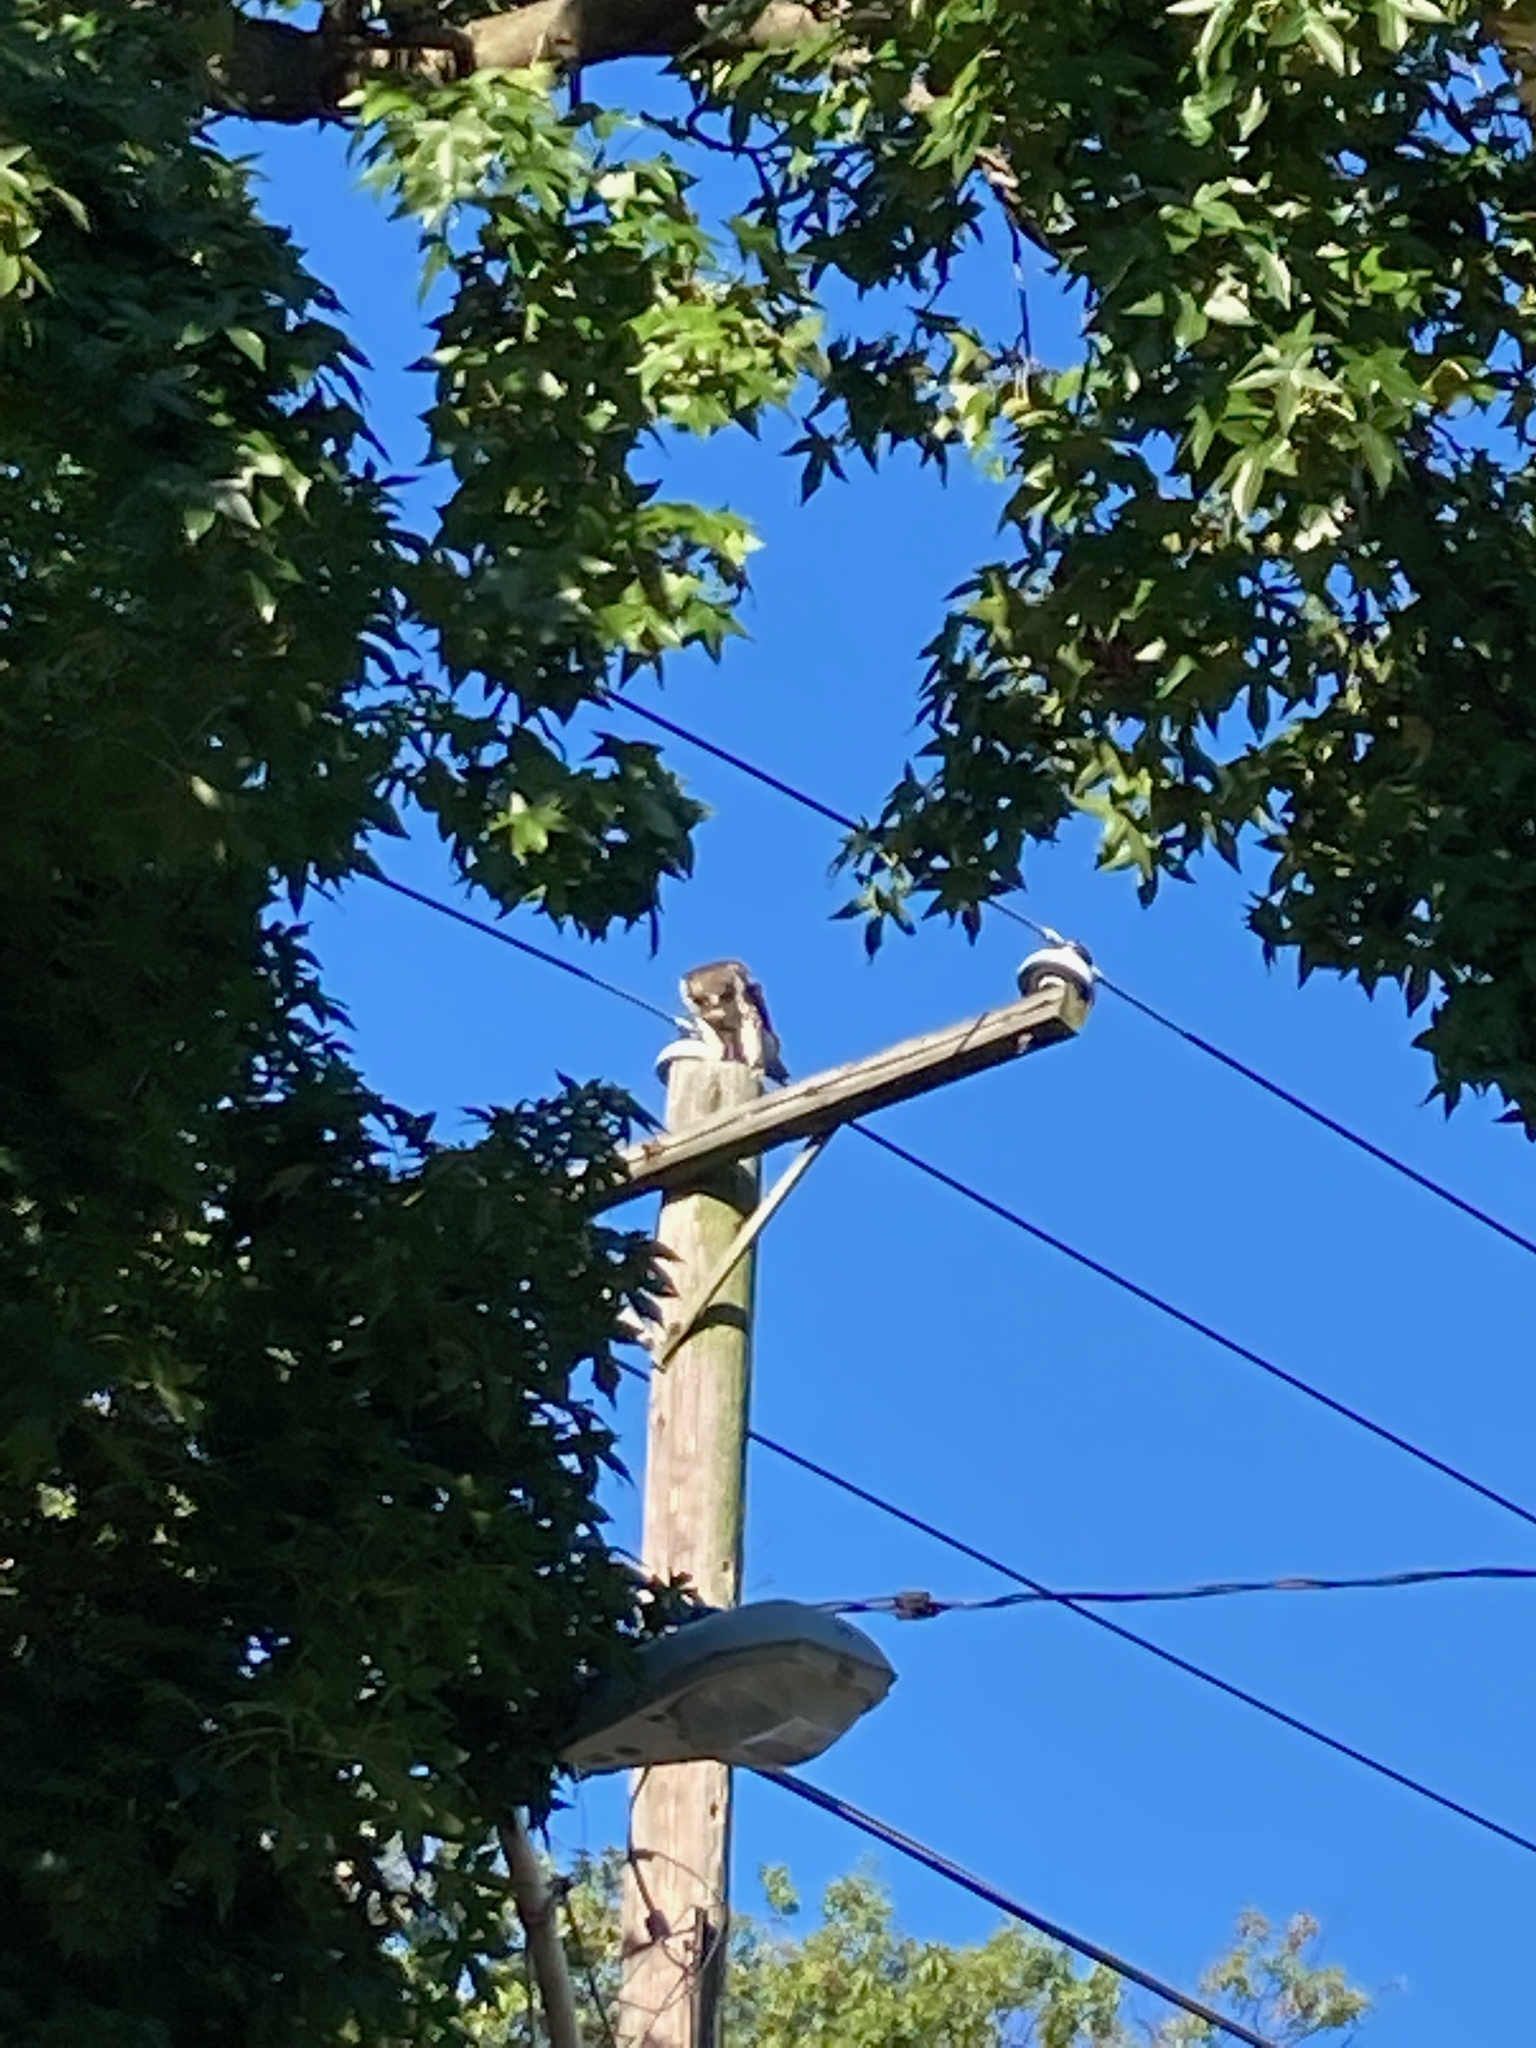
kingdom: Animalia
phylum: Chordata
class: Aves
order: Accipitriformes
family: Accipitridae
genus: Buteo
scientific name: Buteo jamaicensis
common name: Red-tailed hawk
